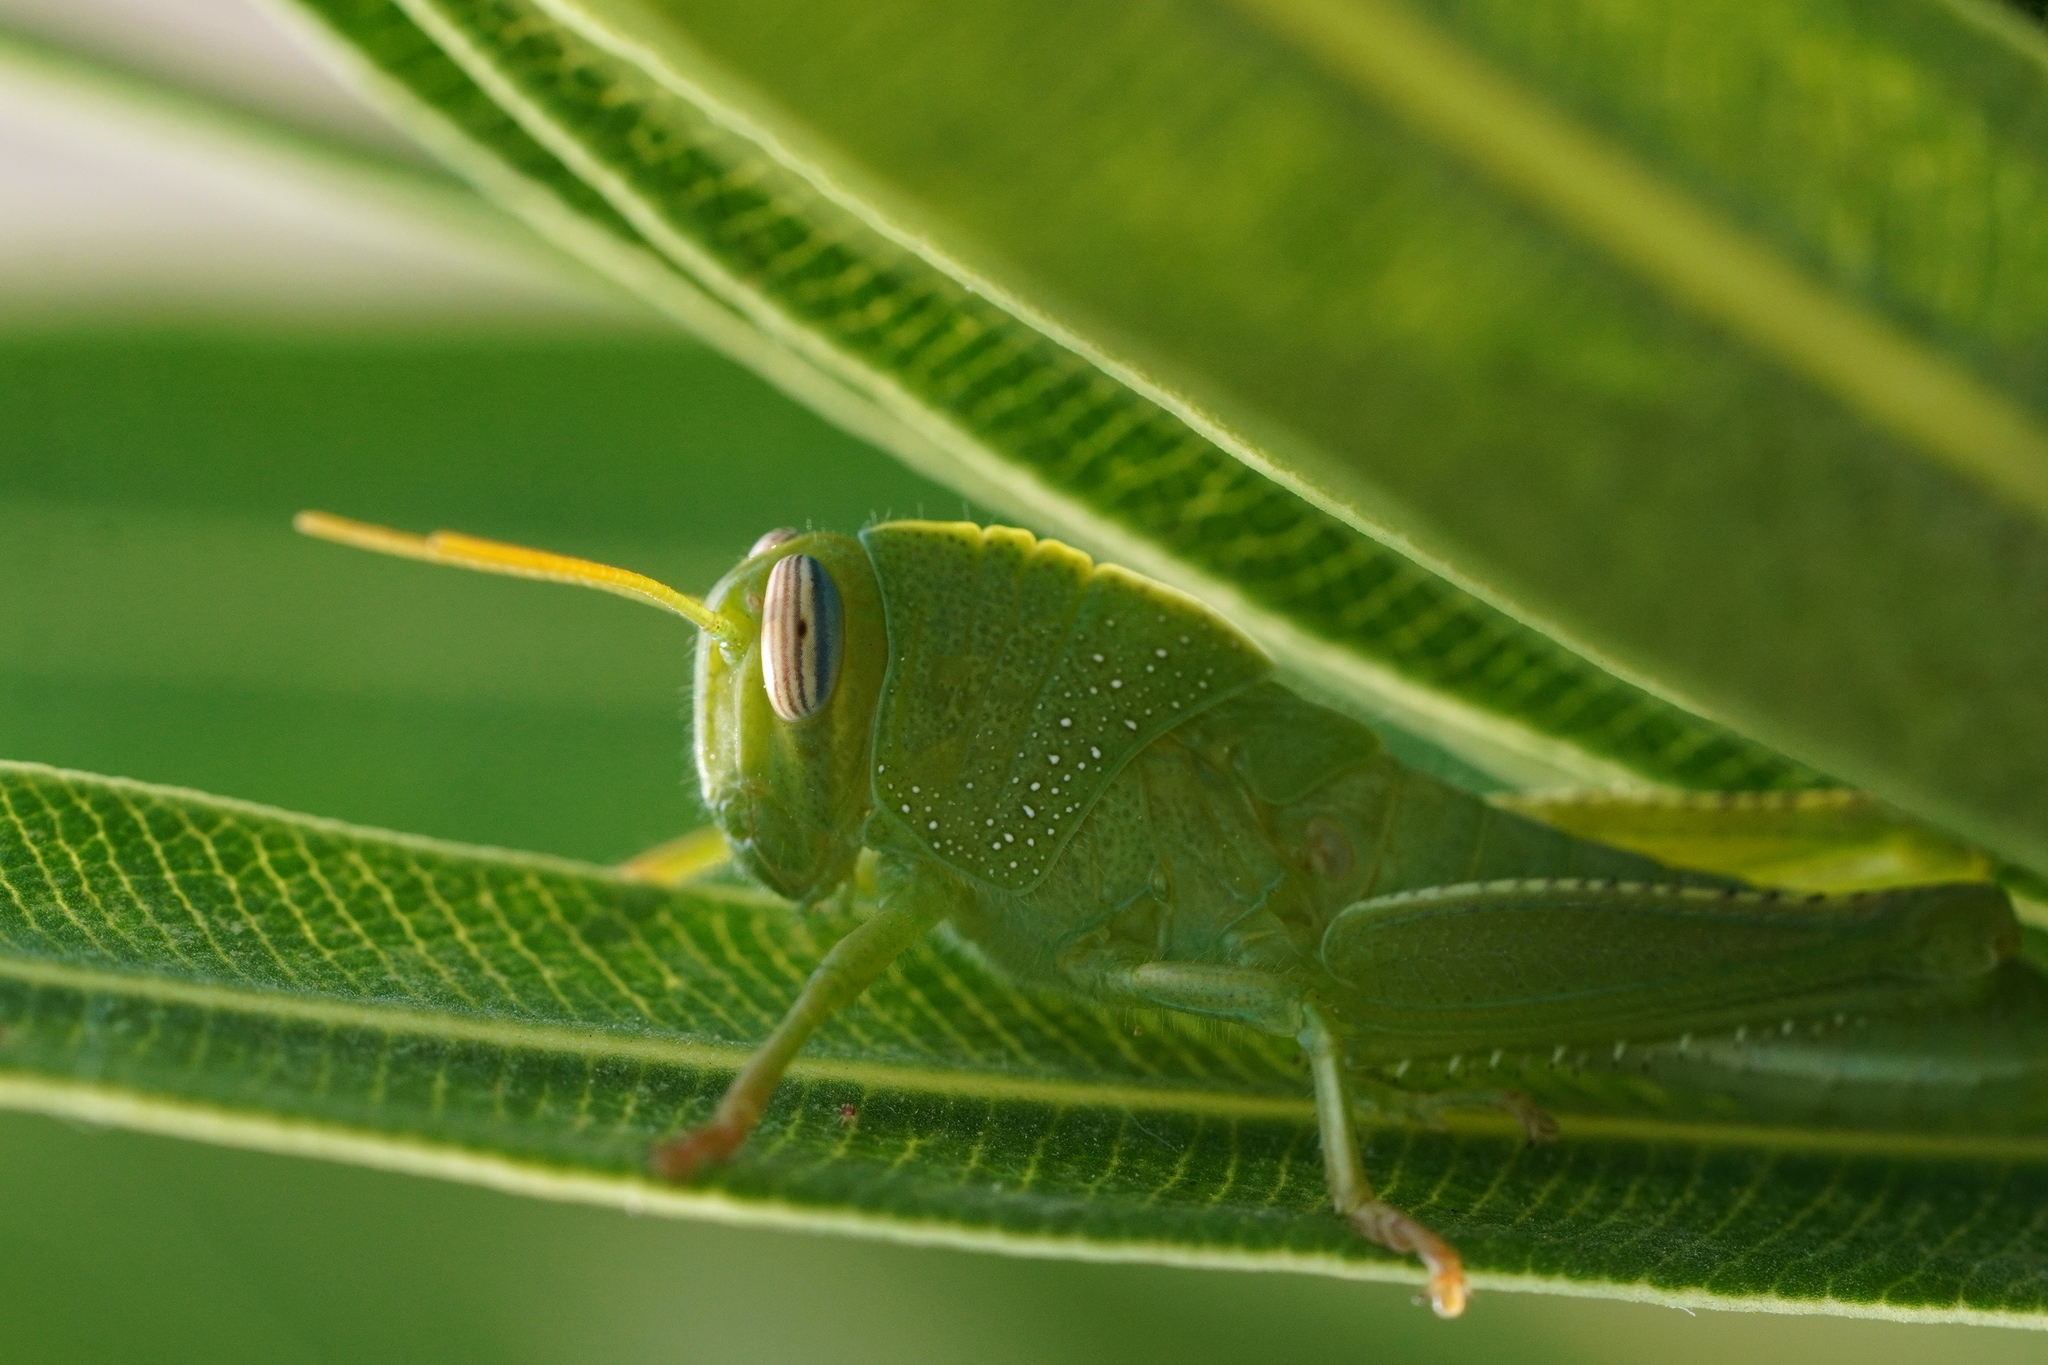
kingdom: Animalia
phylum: Arthropoda
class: Insecta
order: Orthoptera
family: Acrididae
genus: Anacridium
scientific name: Anacridium aegyptium
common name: Egyptian grasshopper
